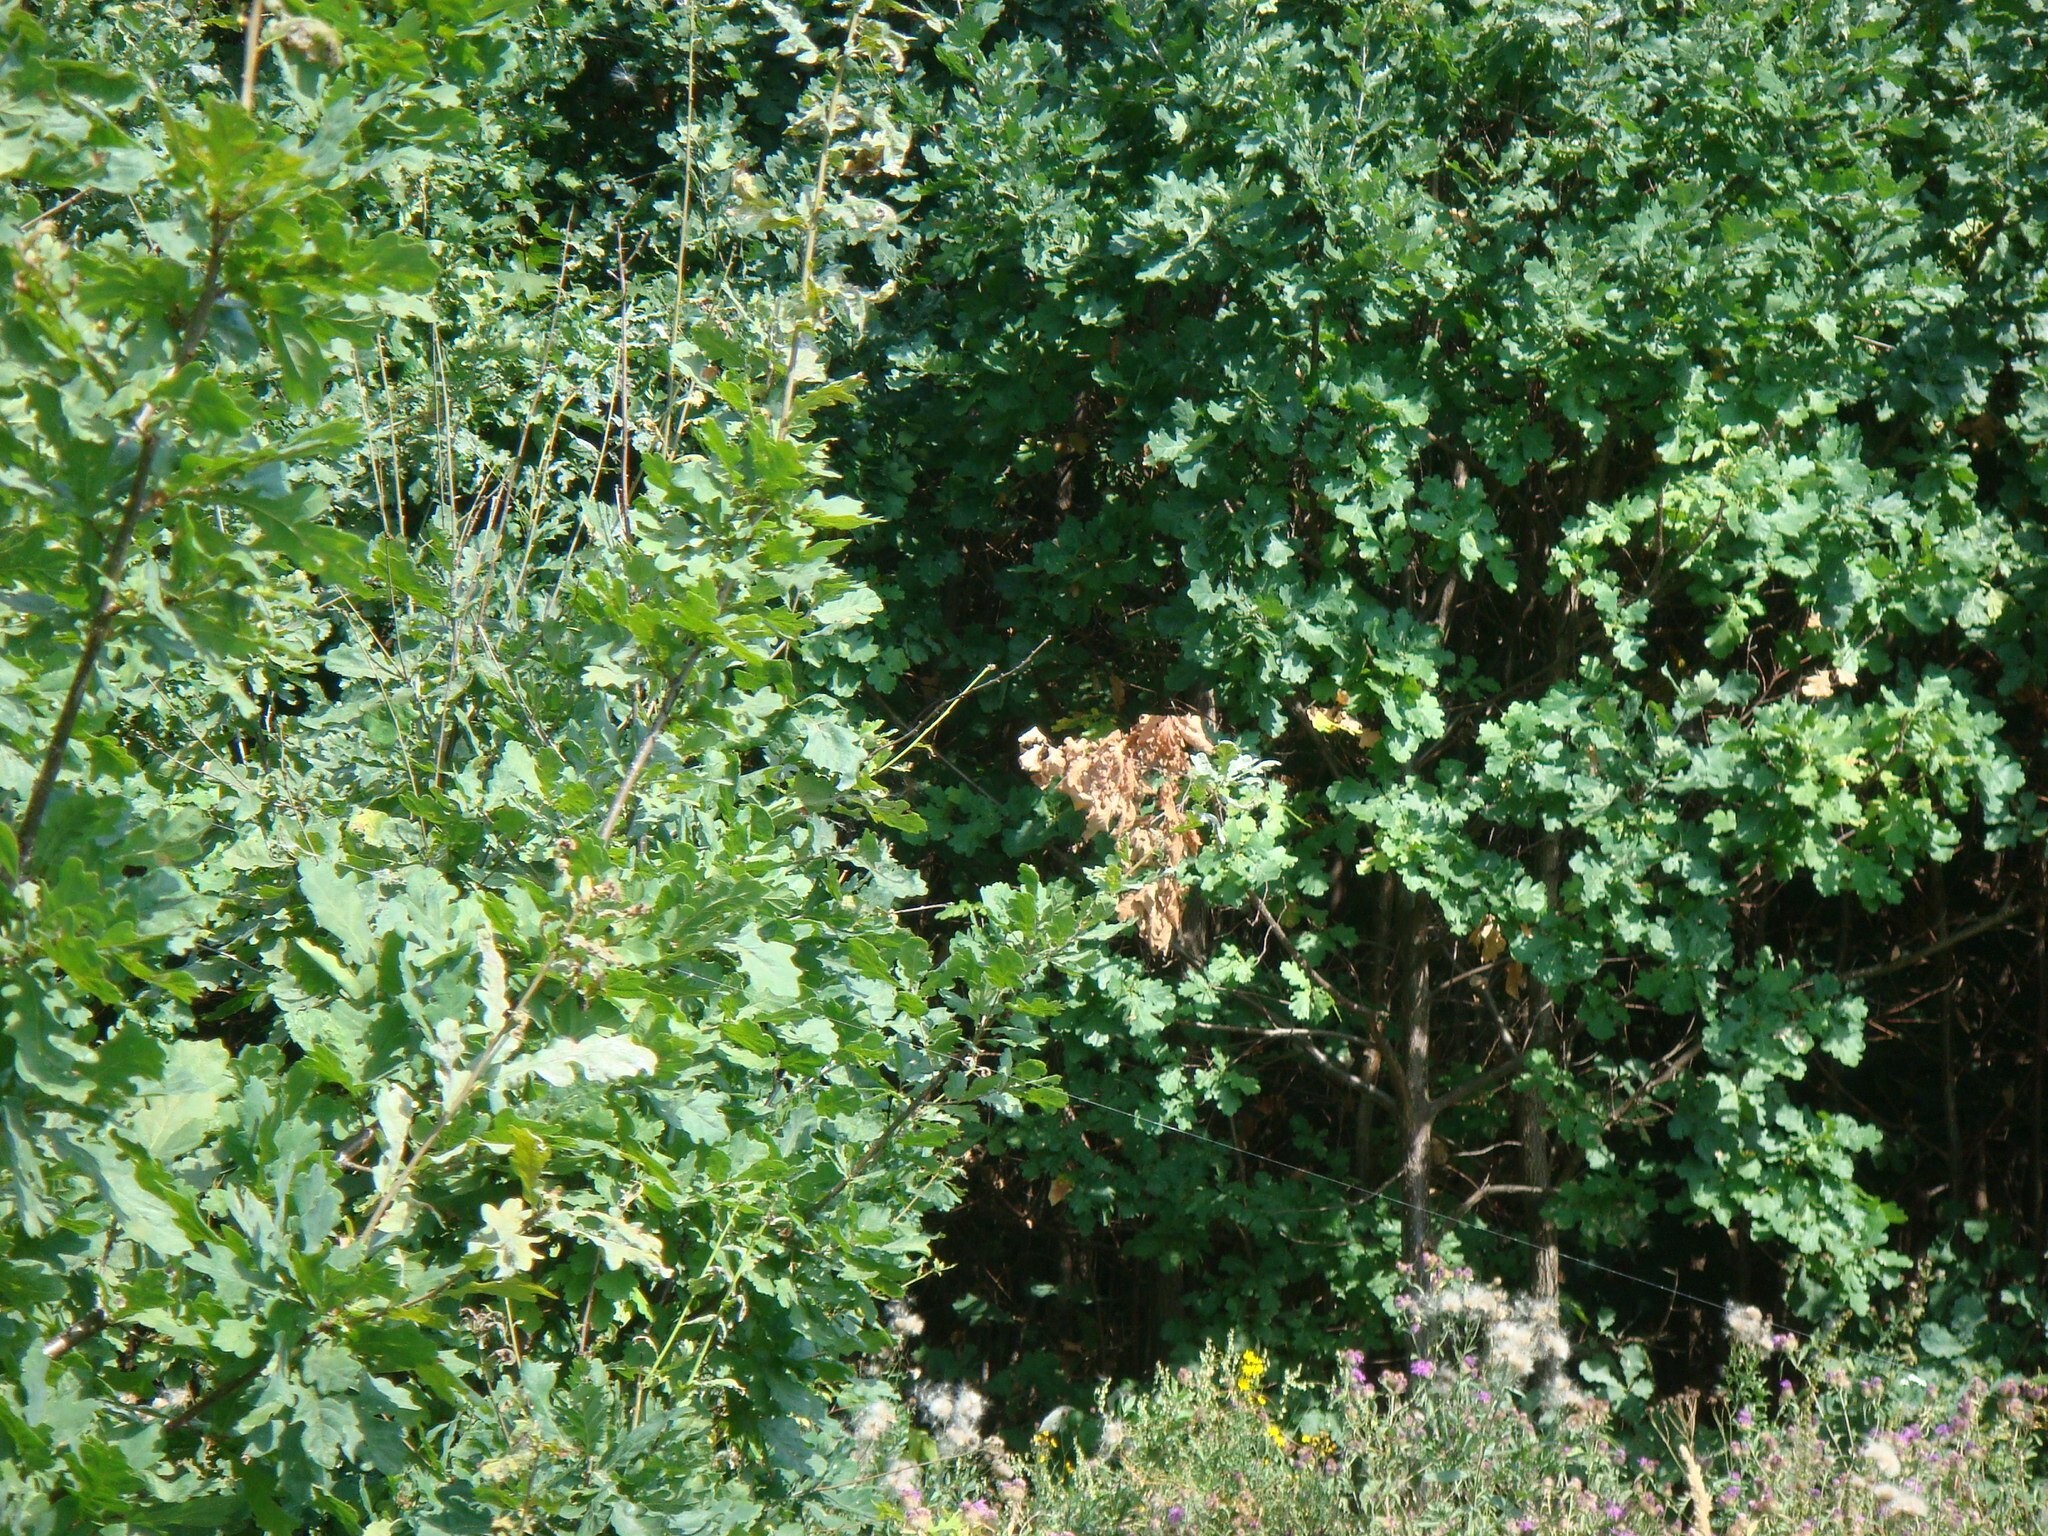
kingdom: Plantae
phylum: Tracheophyta
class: Magnoliopsida
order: Fagales
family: Fagaceae
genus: Quercus
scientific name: Quercus robur
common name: Pedunculate oak
